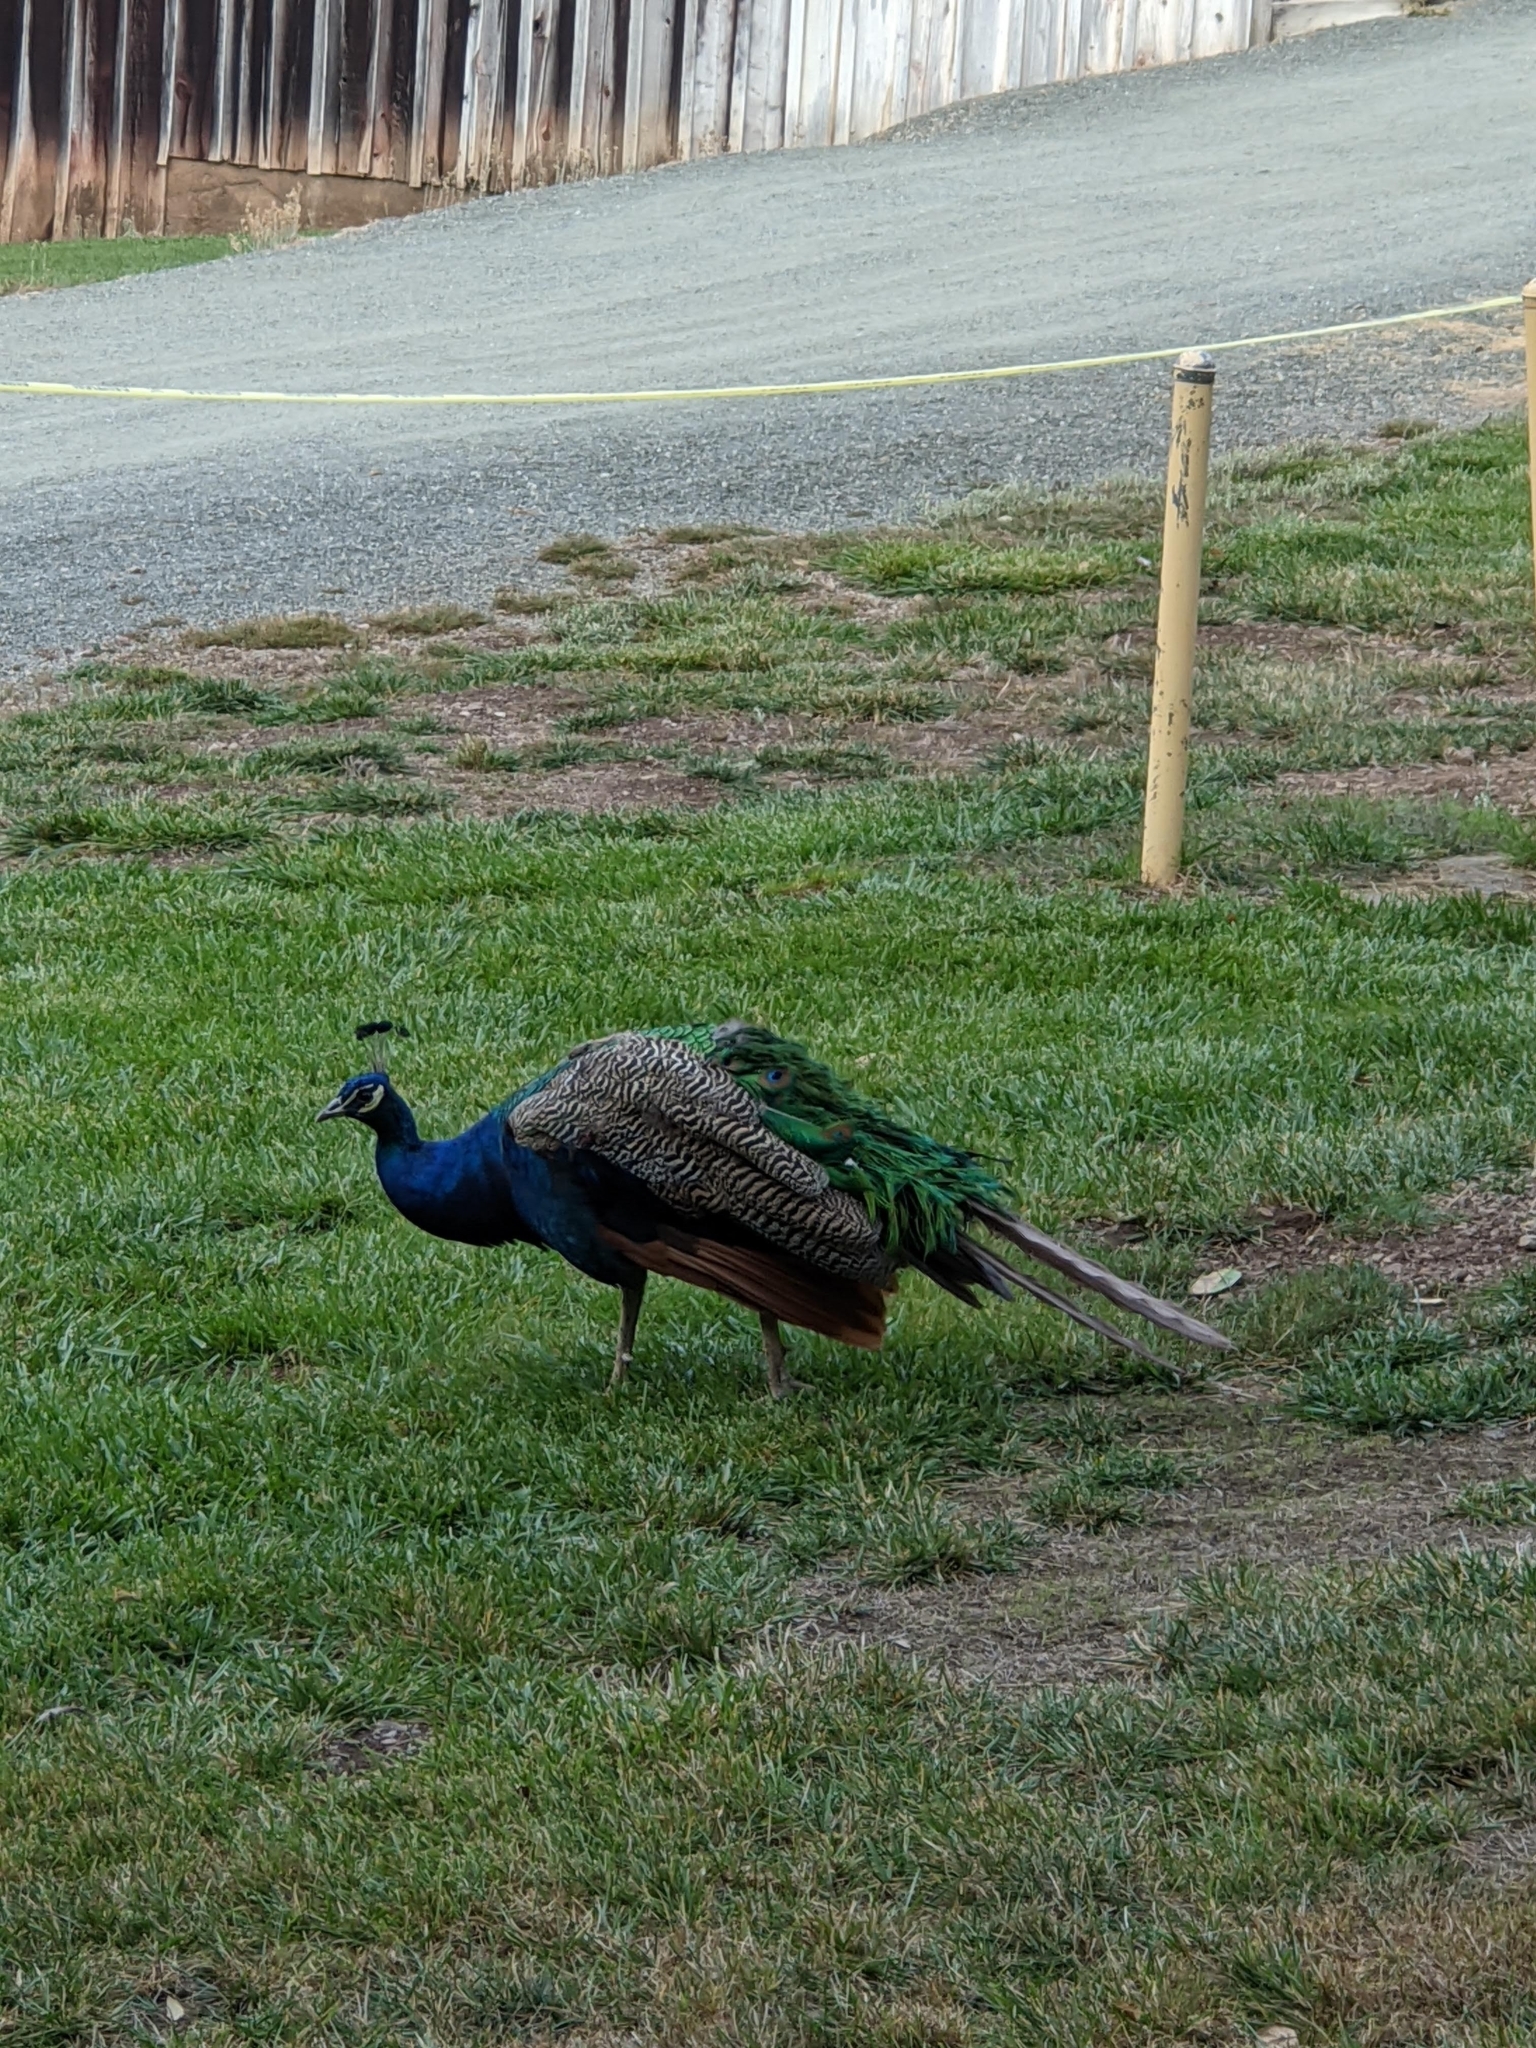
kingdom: Animalia
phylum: Chordata
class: Aves
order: Galliformes
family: Phasianidae
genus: Pavo
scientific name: Pavo cristatus
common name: Indian peafowl
